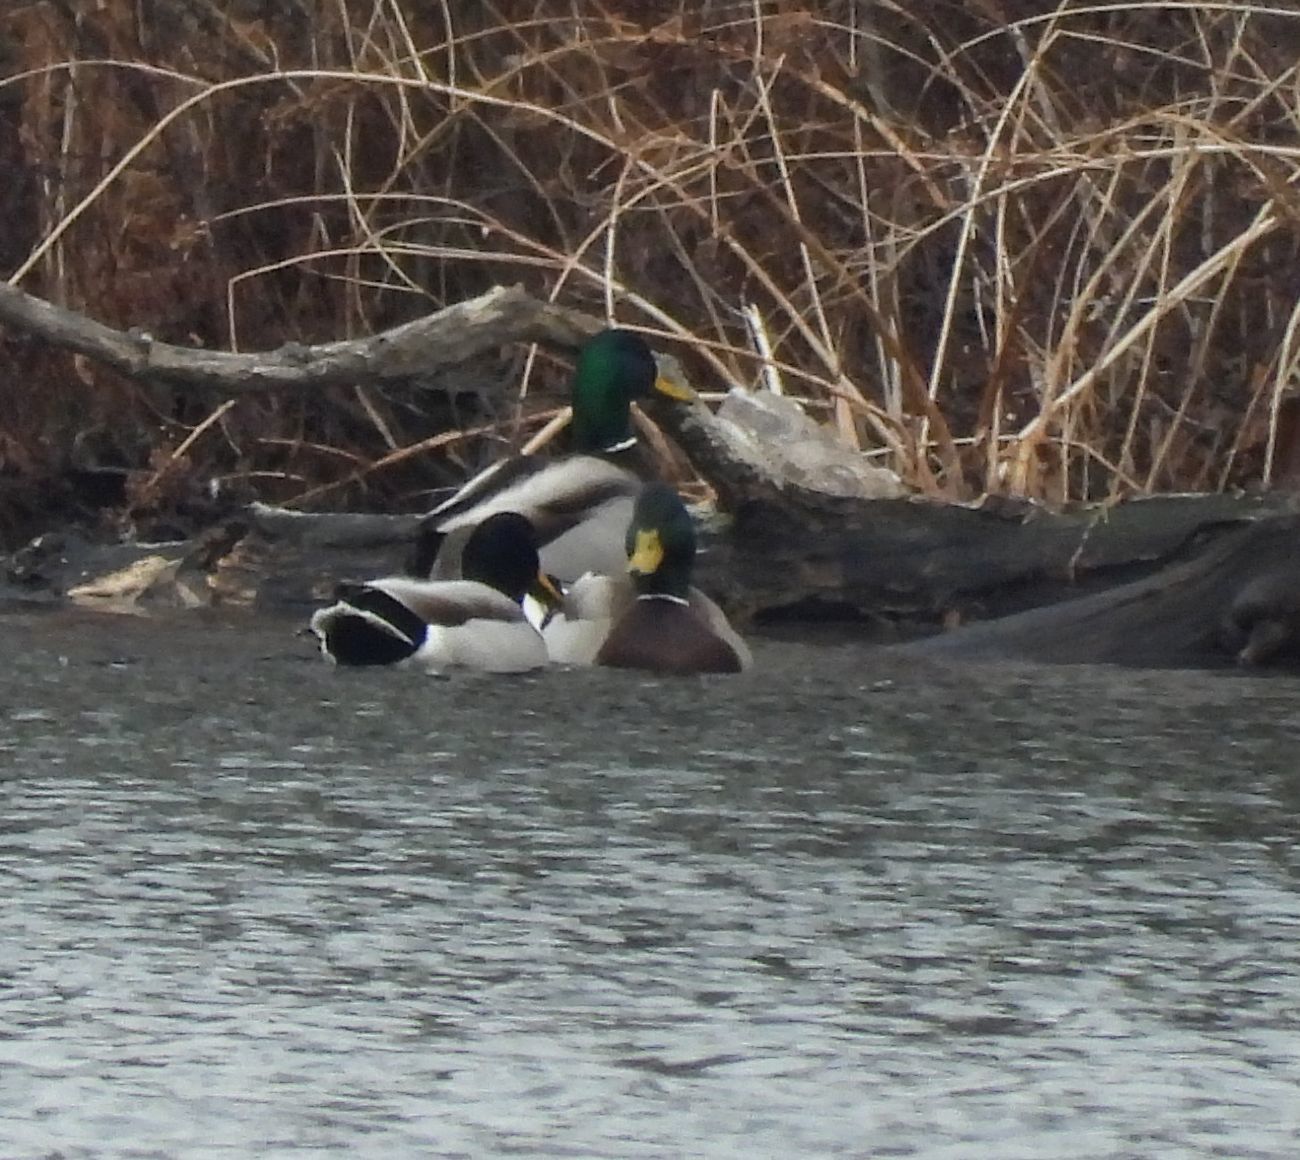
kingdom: Animalia
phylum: Chordata
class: Aves
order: Anseriformes
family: Anatidae
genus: Anas
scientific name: Anas platyrhynchos
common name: Mallard
